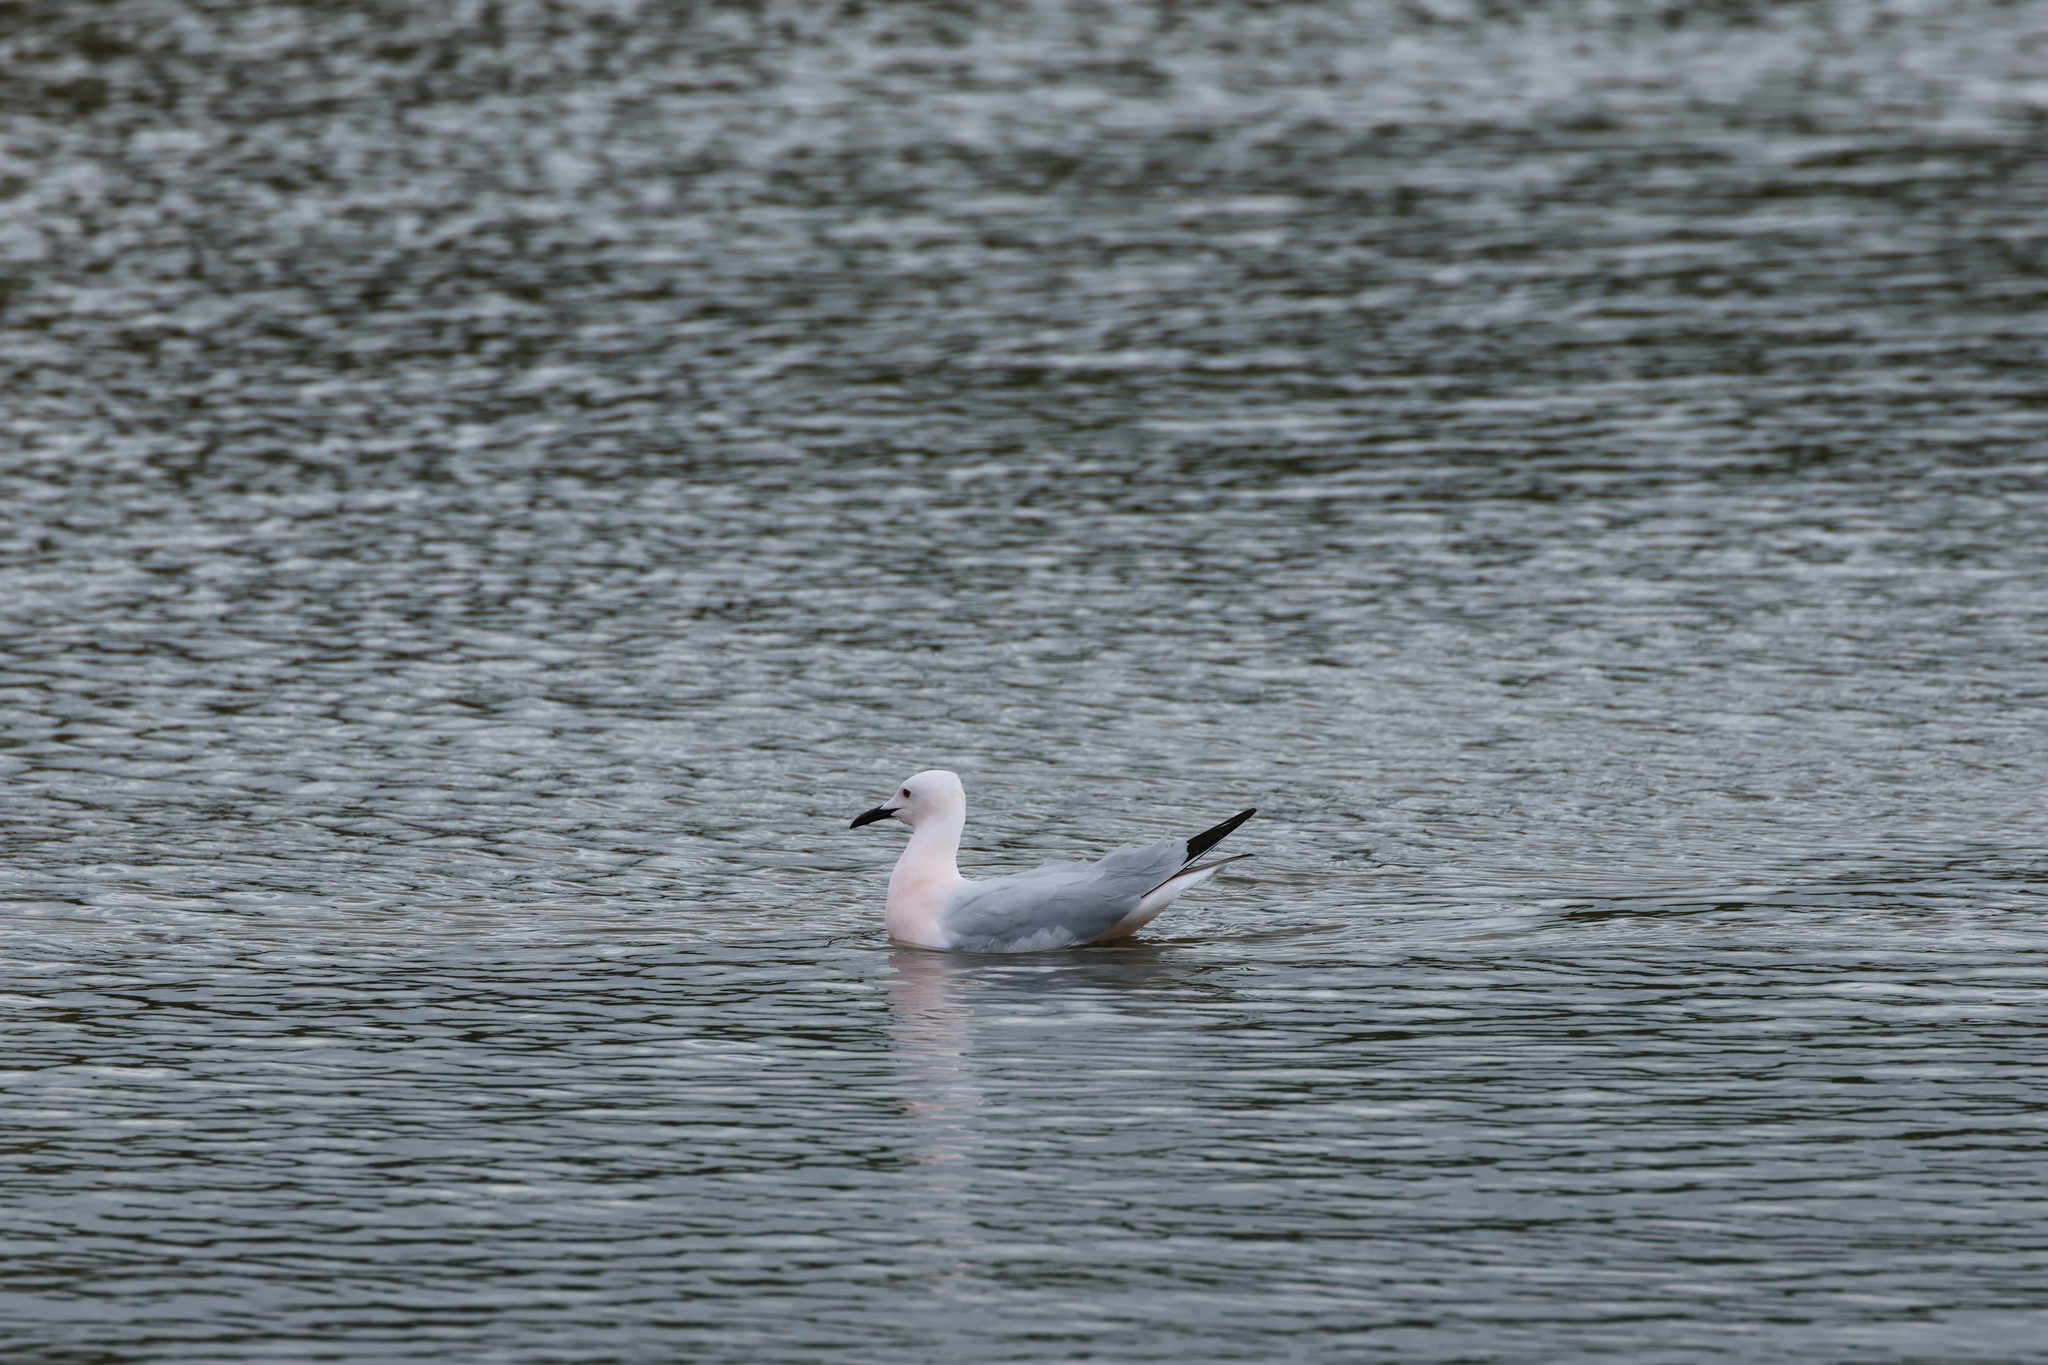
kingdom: Animalia
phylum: Chordata
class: Aves
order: Charadriiformes
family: Laridae
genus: Chroicocephalus
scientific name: Chroicocephalus genei
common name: Slender-billed gull
